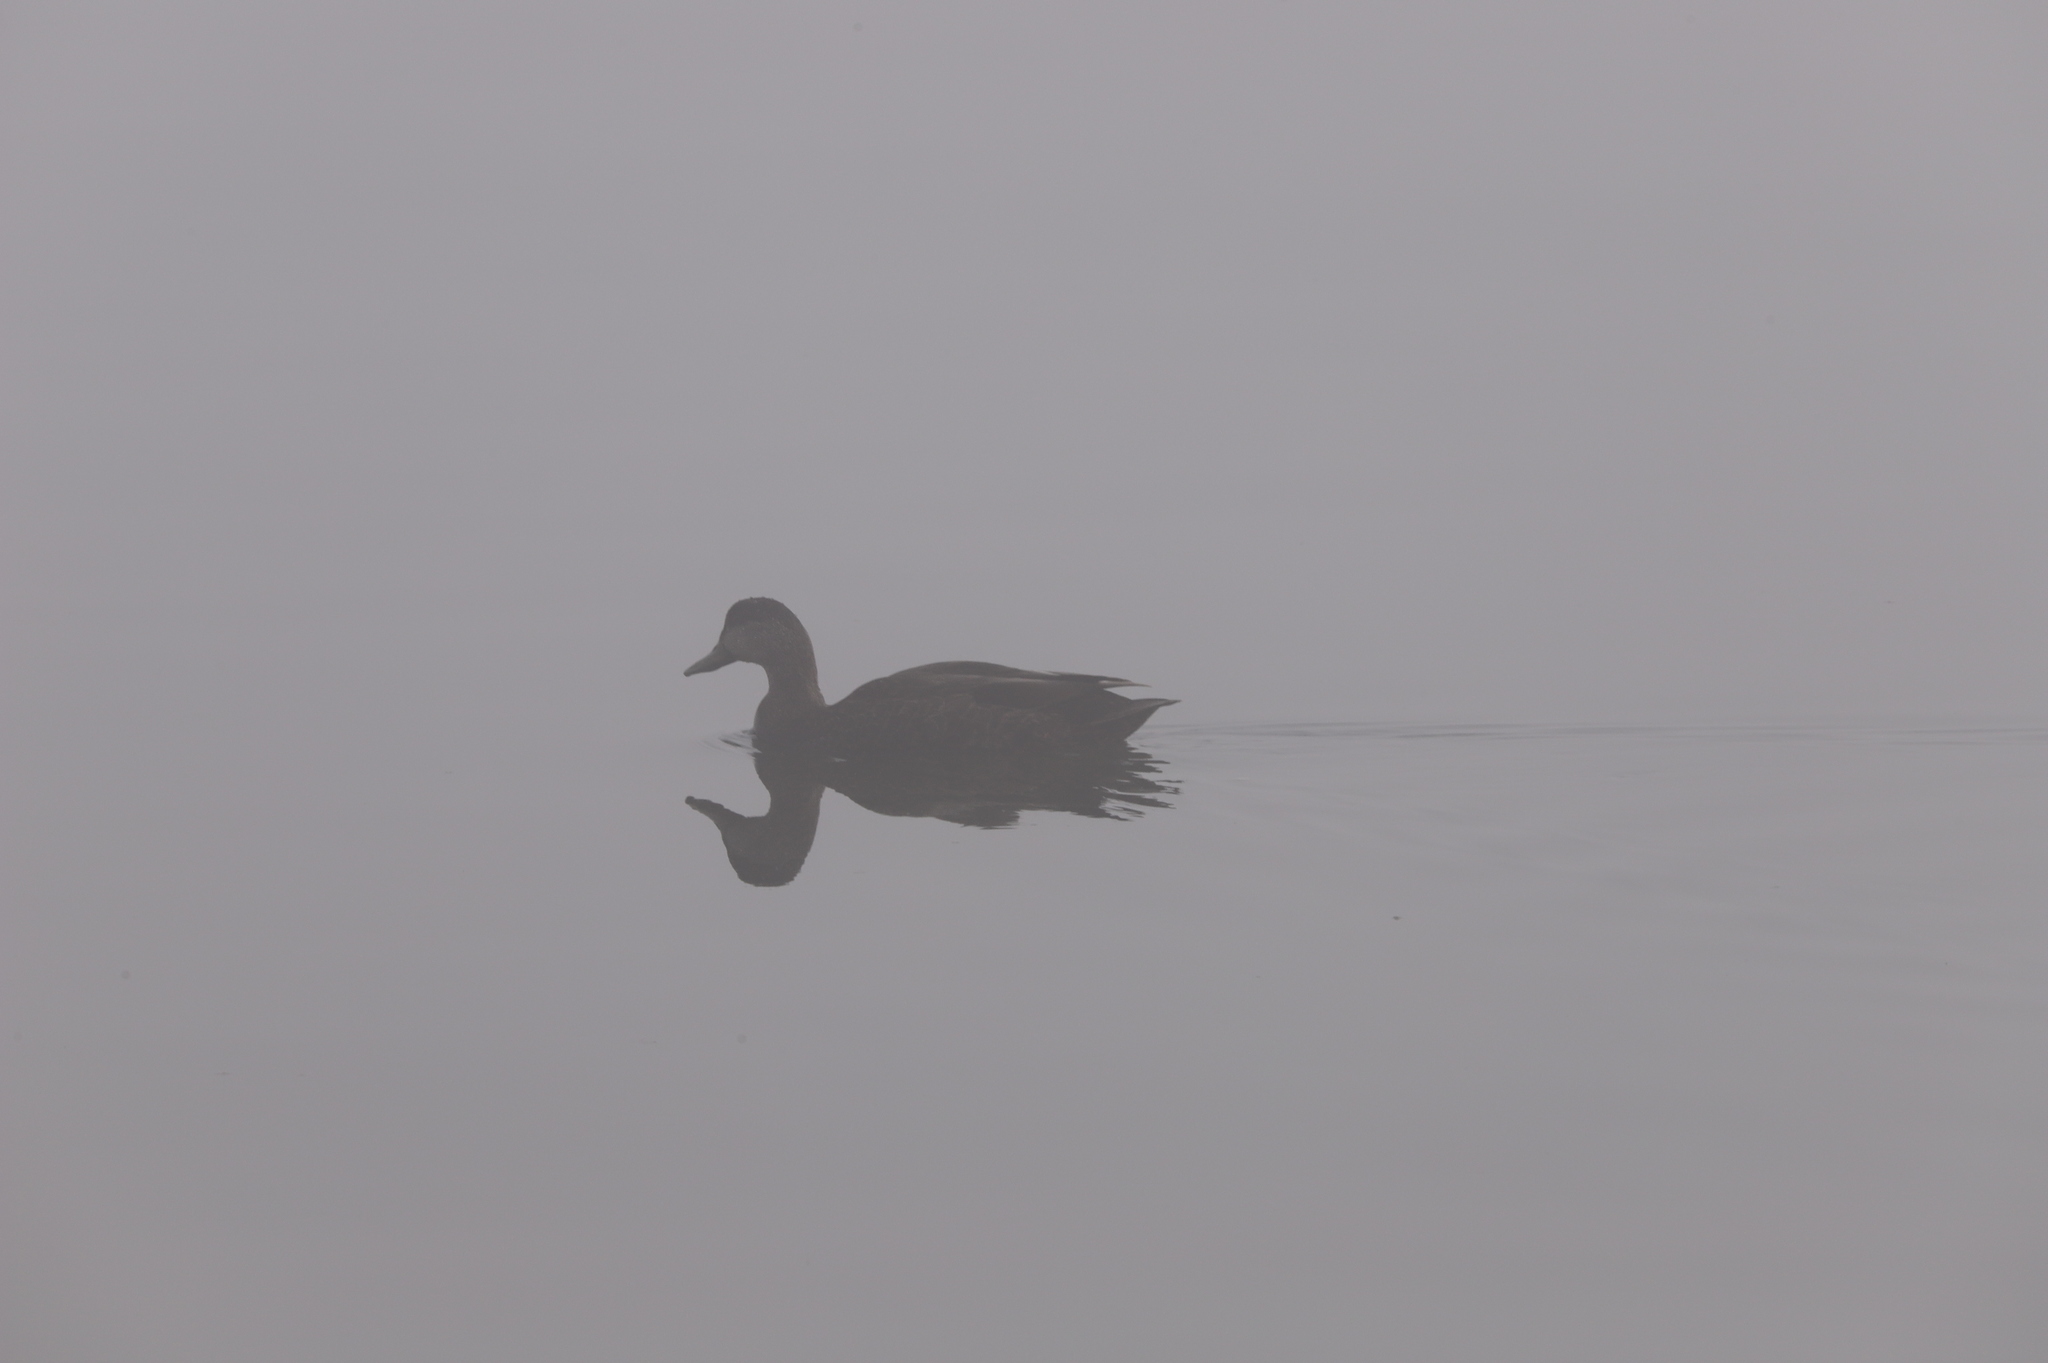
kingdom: Animalia
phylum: Chordata
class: Aves
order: Anseriformes
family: Anatidae
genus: Anas
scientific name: Anas platyrhynchos
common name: Mallard
